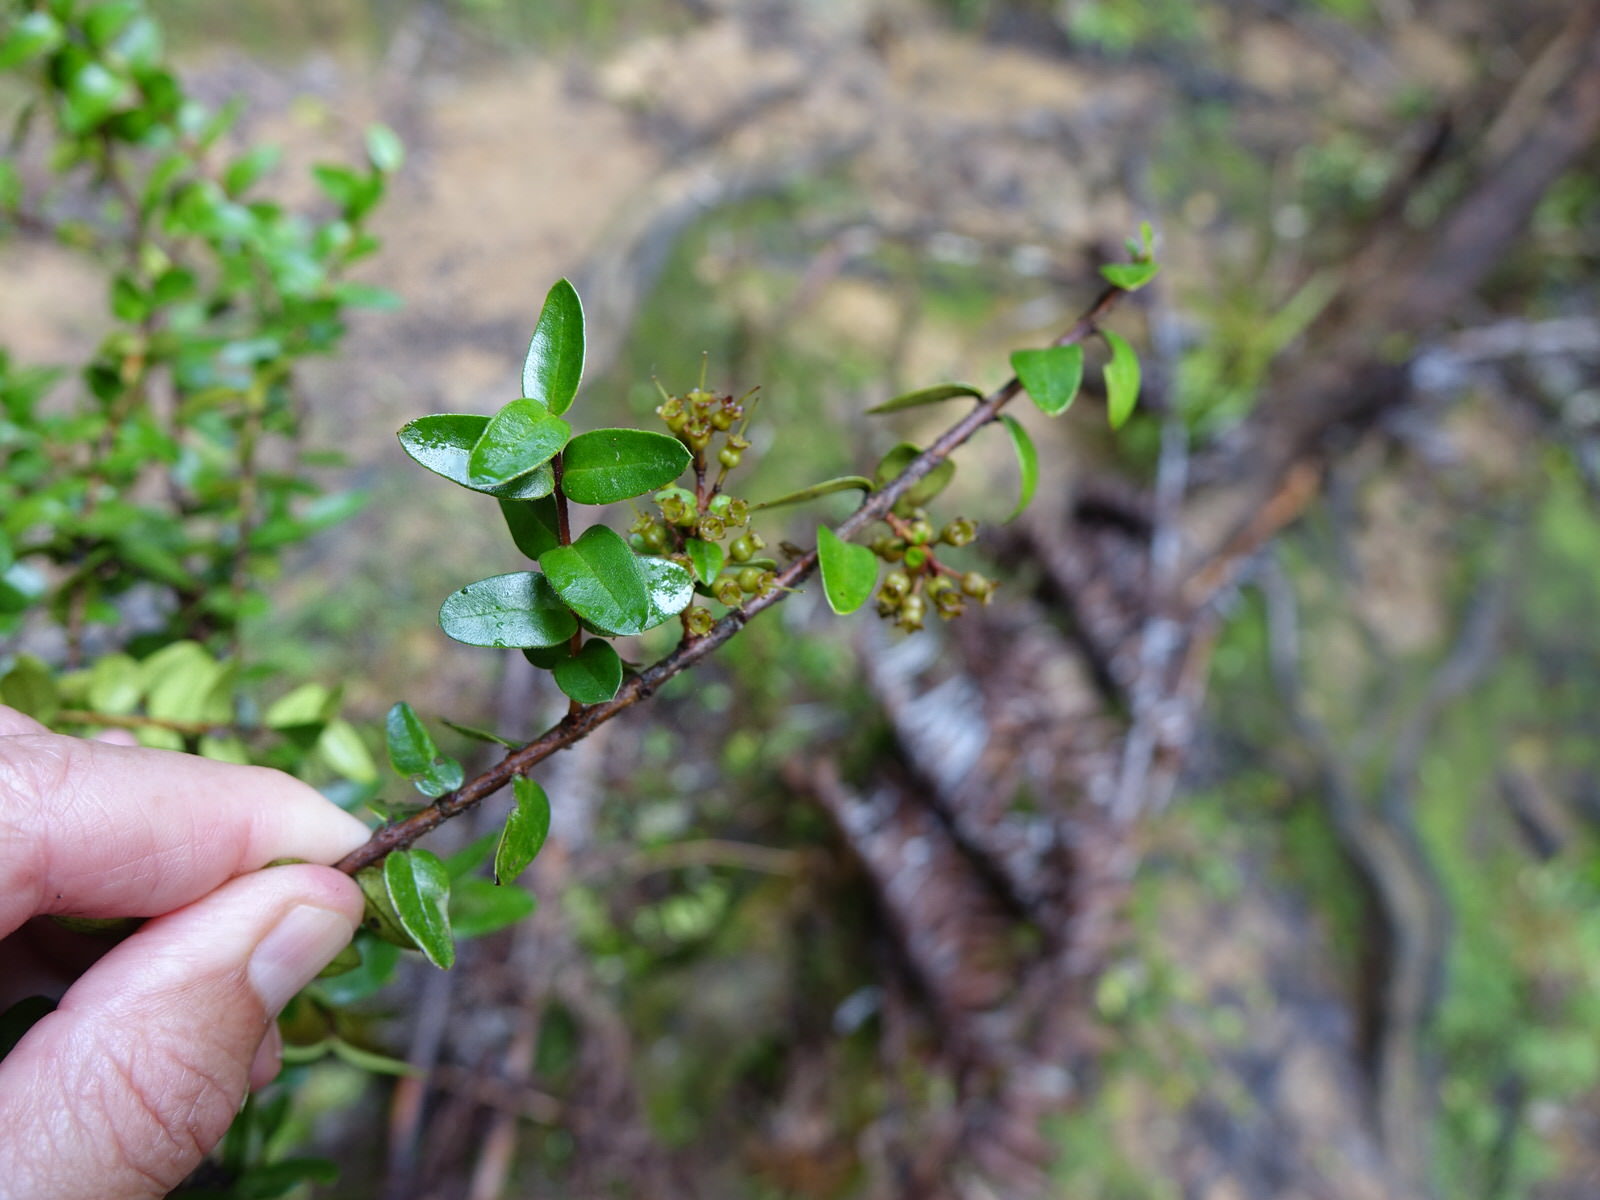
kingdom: Plantae
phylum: Tracheophyta
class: Magnoliopsida
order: Myrtales
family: Myrtaceae
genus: Metrosideros
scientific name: Metrosideros diffusa
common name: Small ratavine
